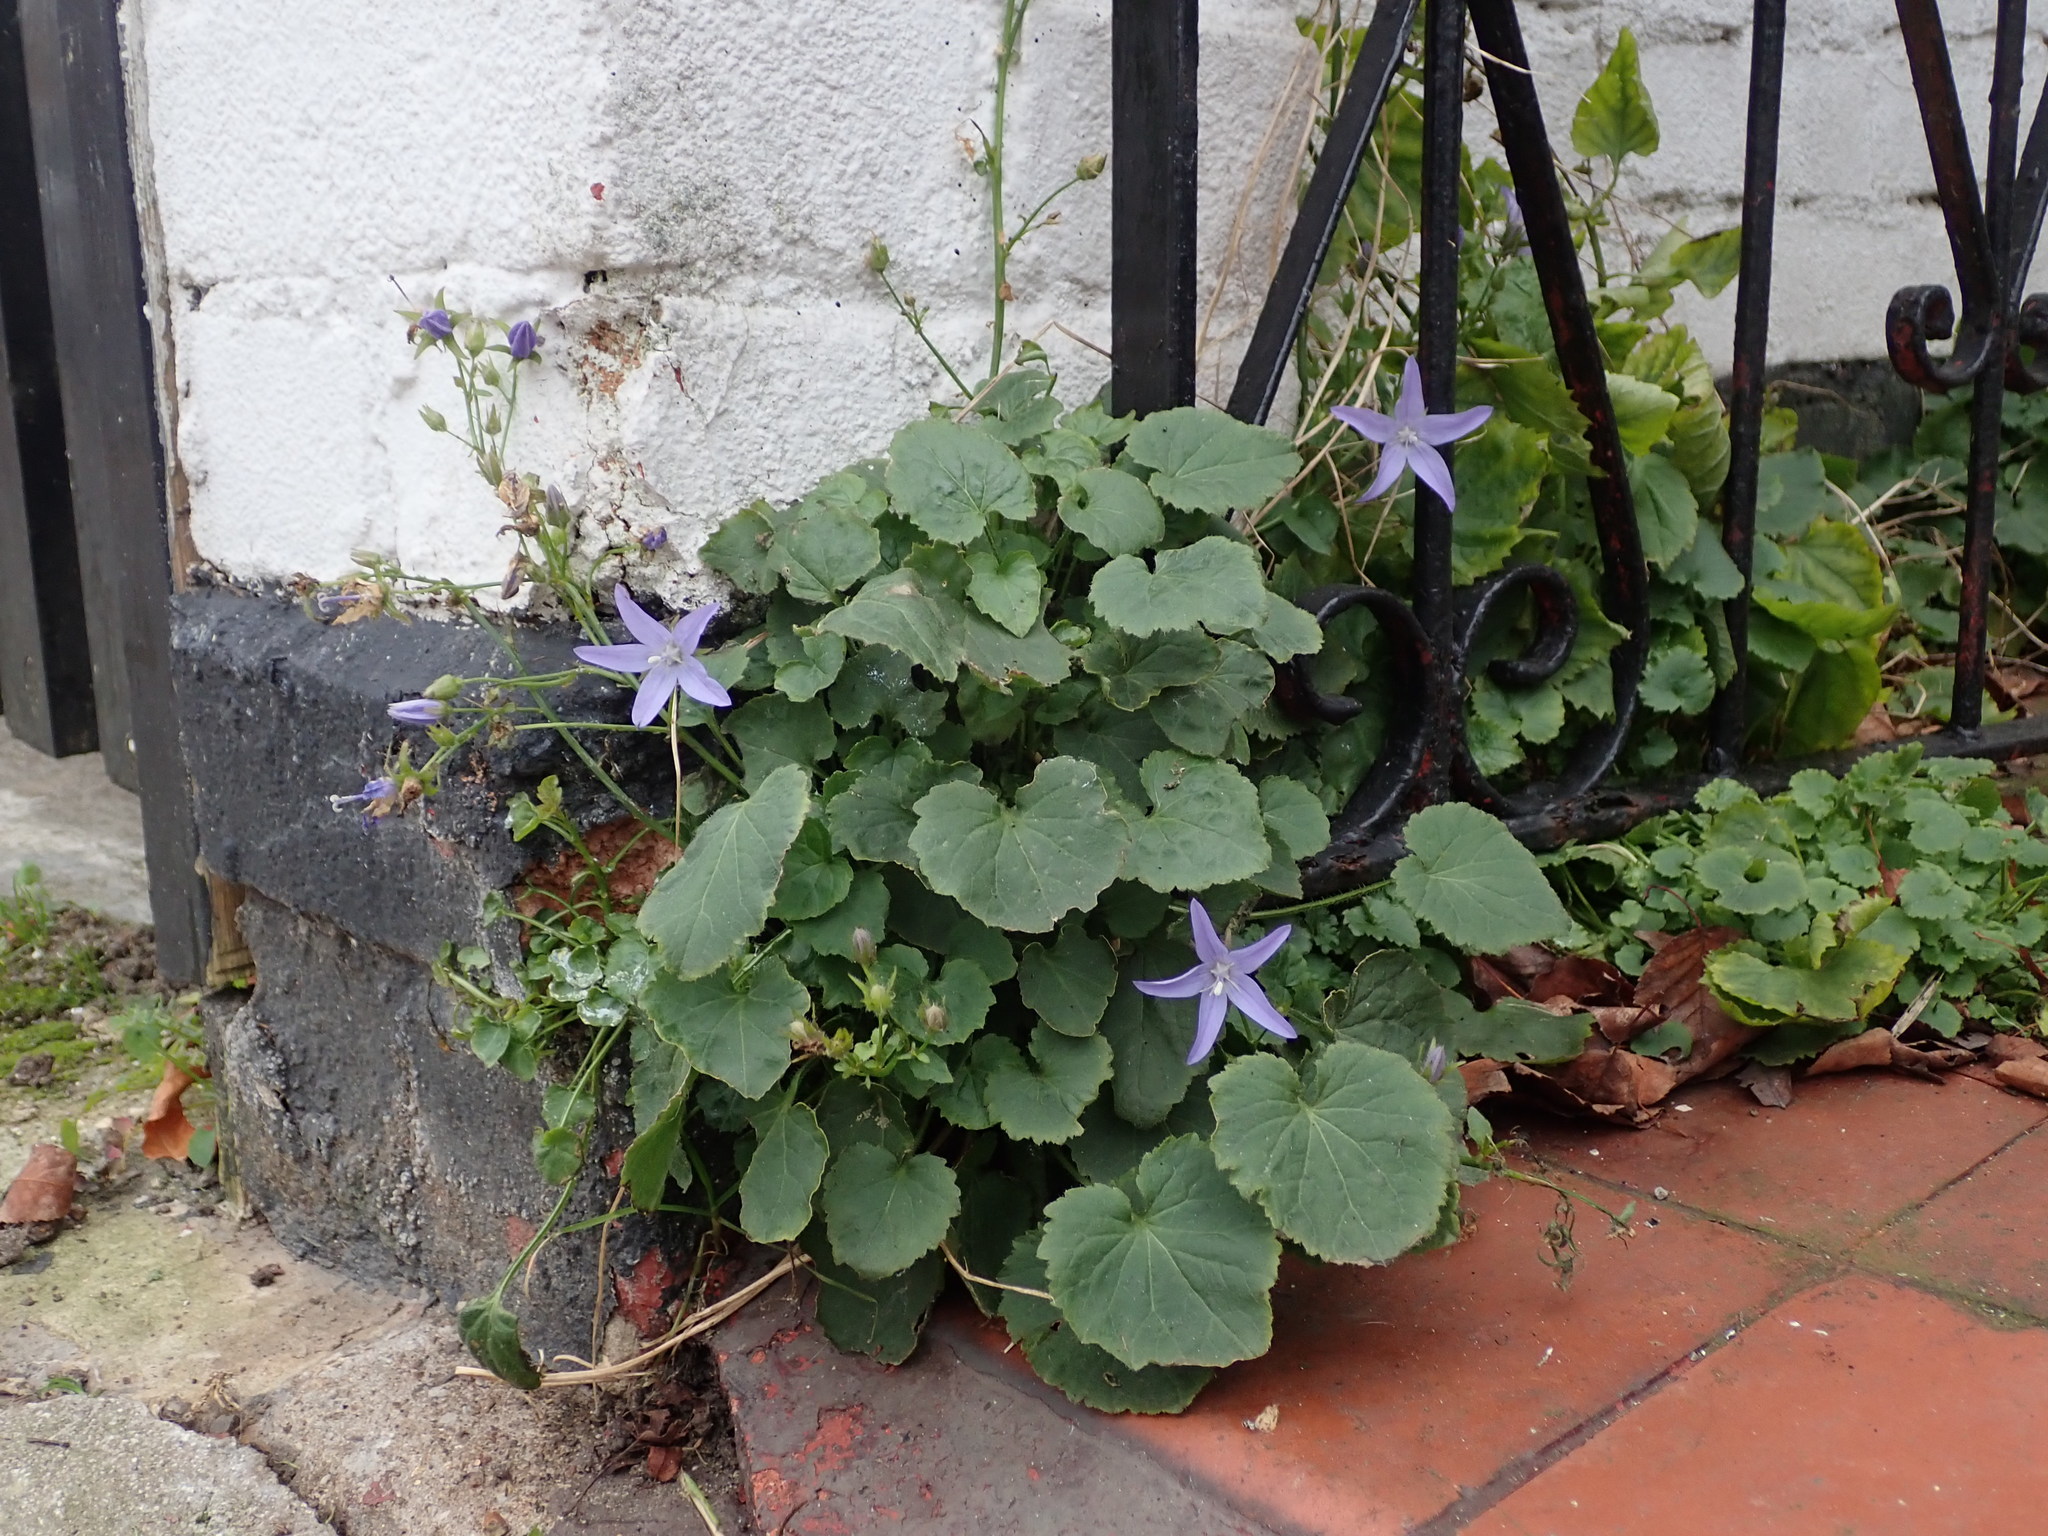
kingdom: Plantae
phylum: Tracheophyta
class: Magnoliopsida
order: Asterales
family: Campanulaceae
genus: Campanula
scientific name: Campanula poscharskyana
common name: Trailing bellflower
